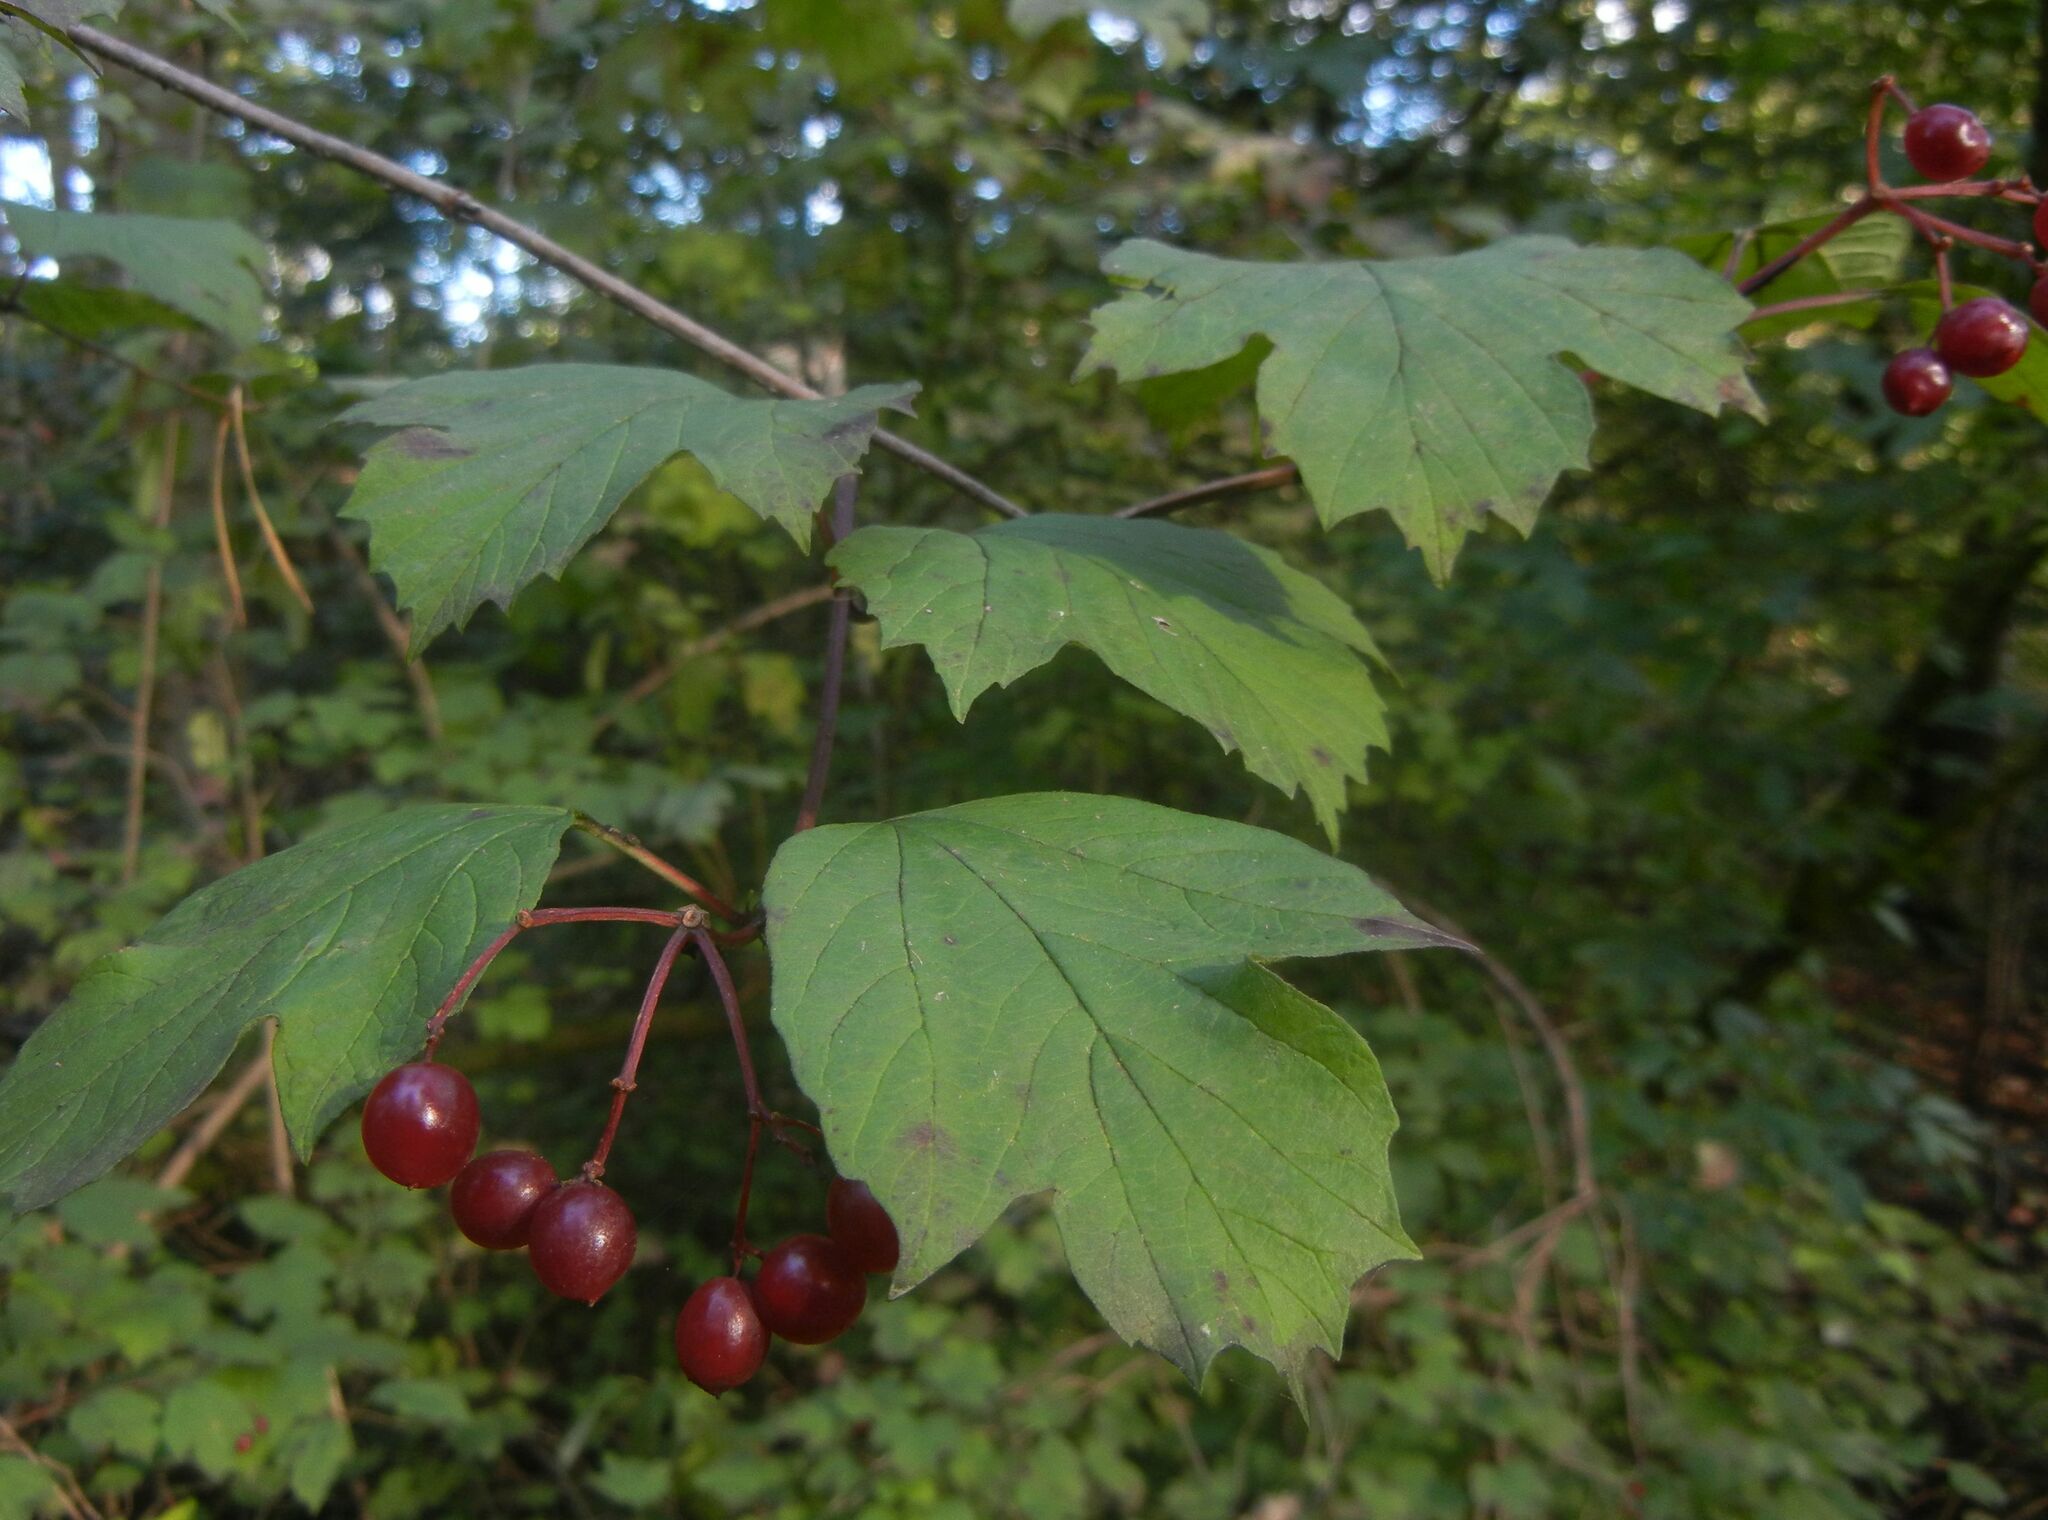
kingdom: Plantae
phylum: Tracheophyta
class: Magnoliopsida
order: Dipsacales
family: Viburnaceae
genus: Viburnum
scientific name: Viburnum opulus
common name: Guelder-rose
